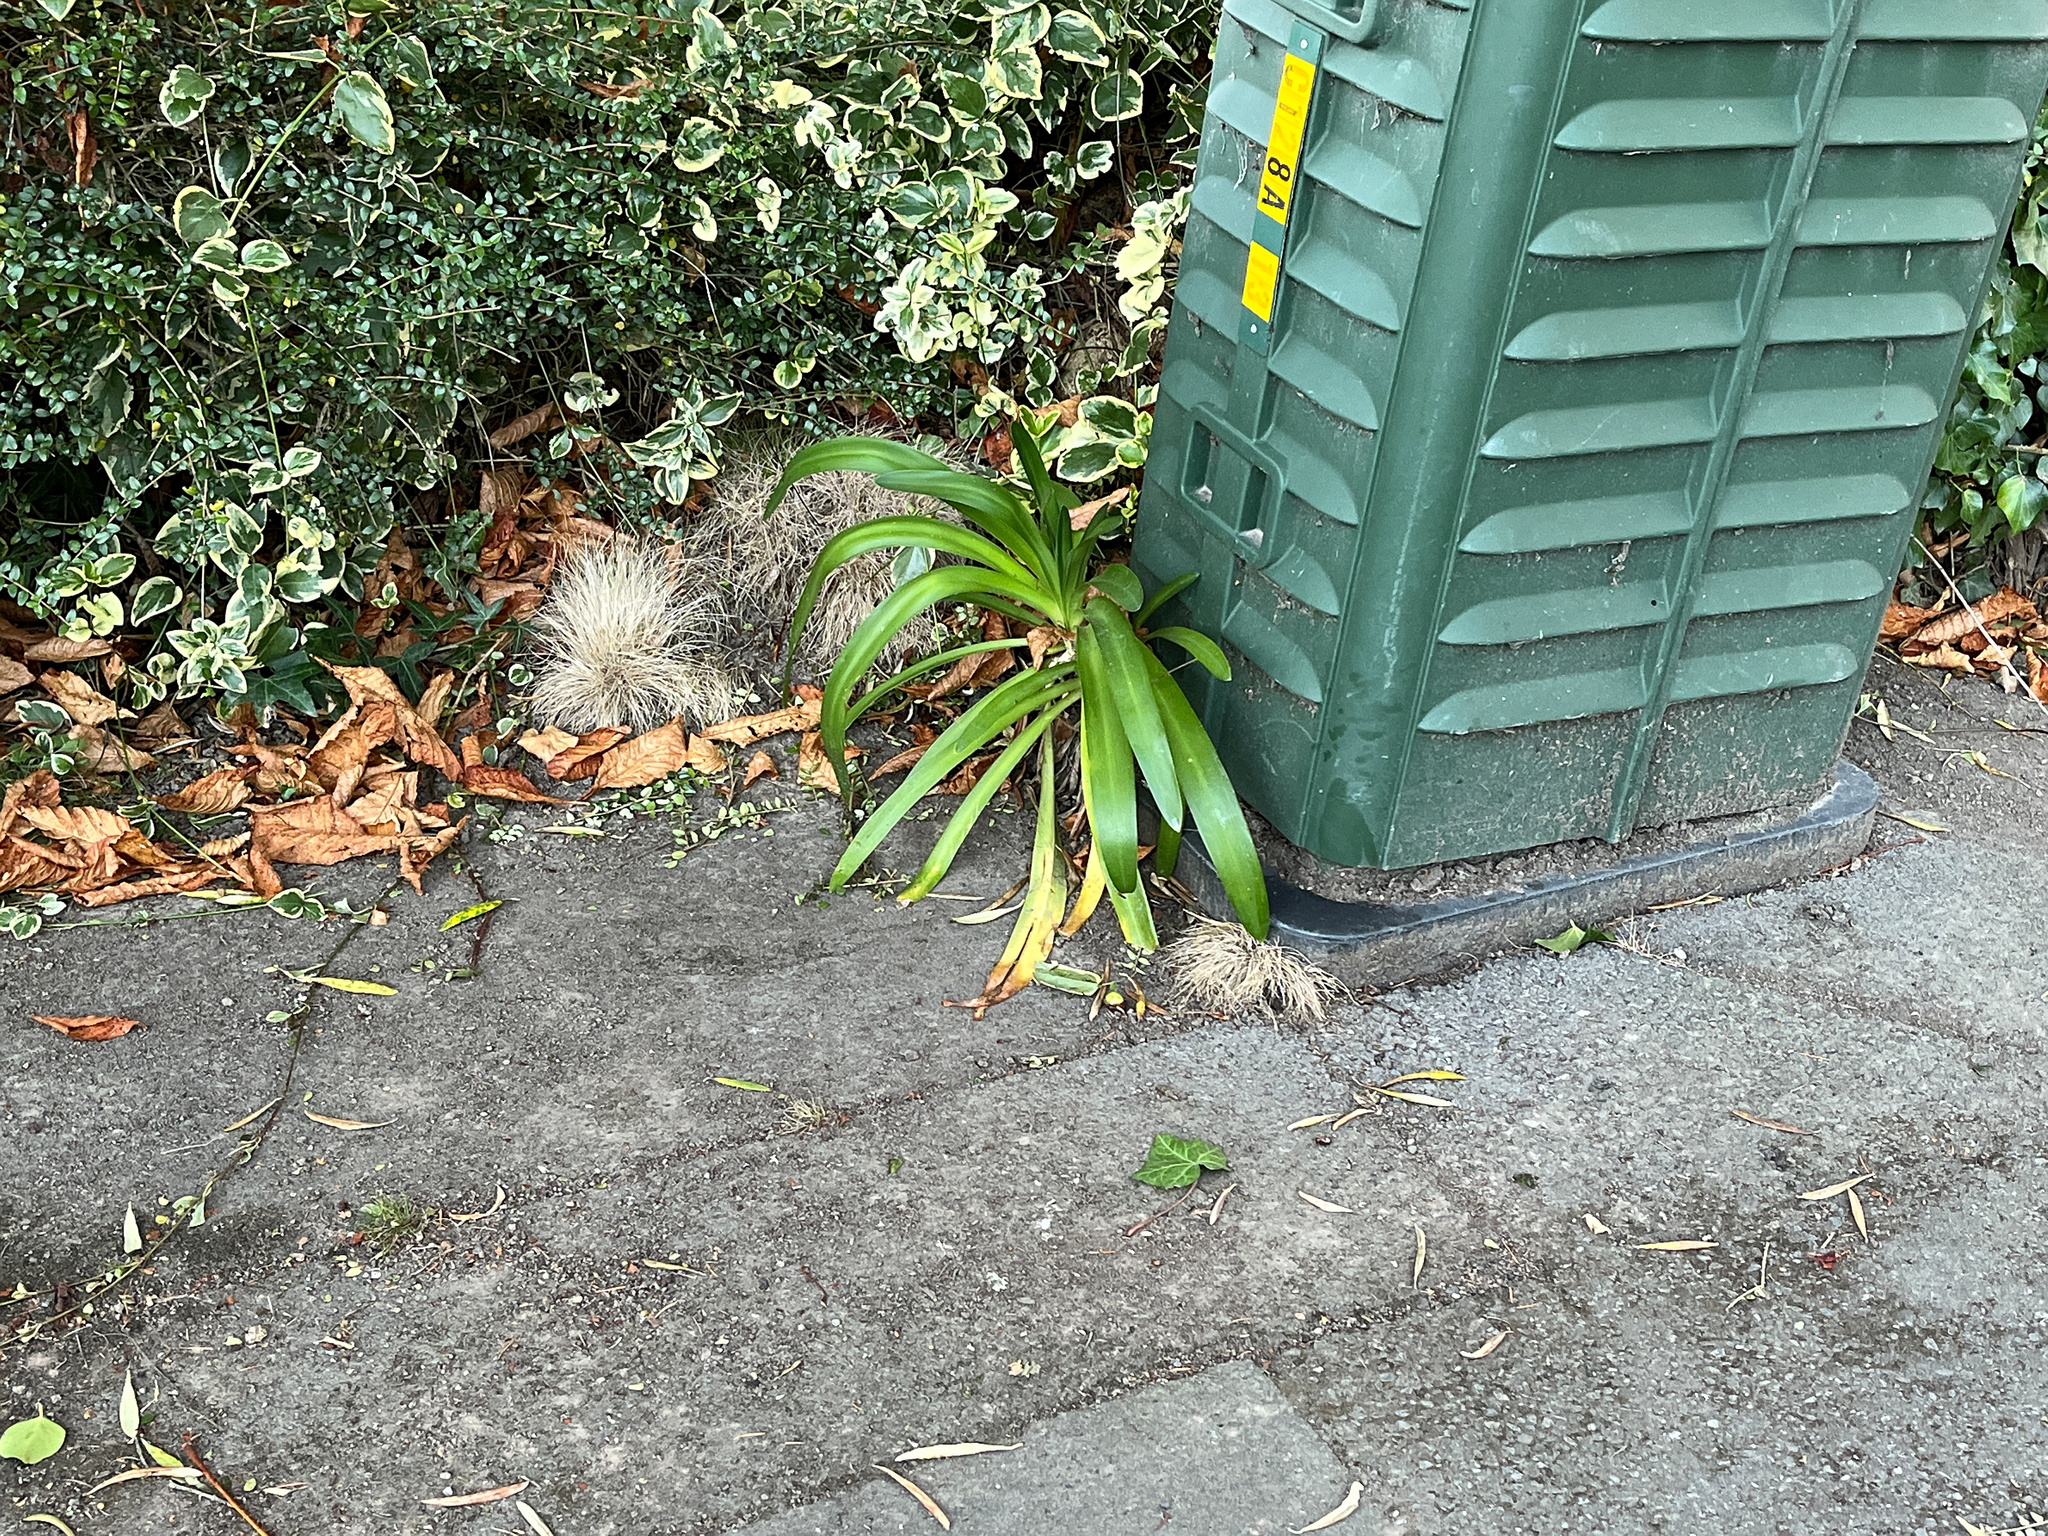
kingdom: Plantae
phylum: Tracheophyta
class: Liliopsida
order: Asparagales
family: Amaryllidaceae
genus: Agapanthus
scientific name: Agapanthus praecox
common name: African-lily
